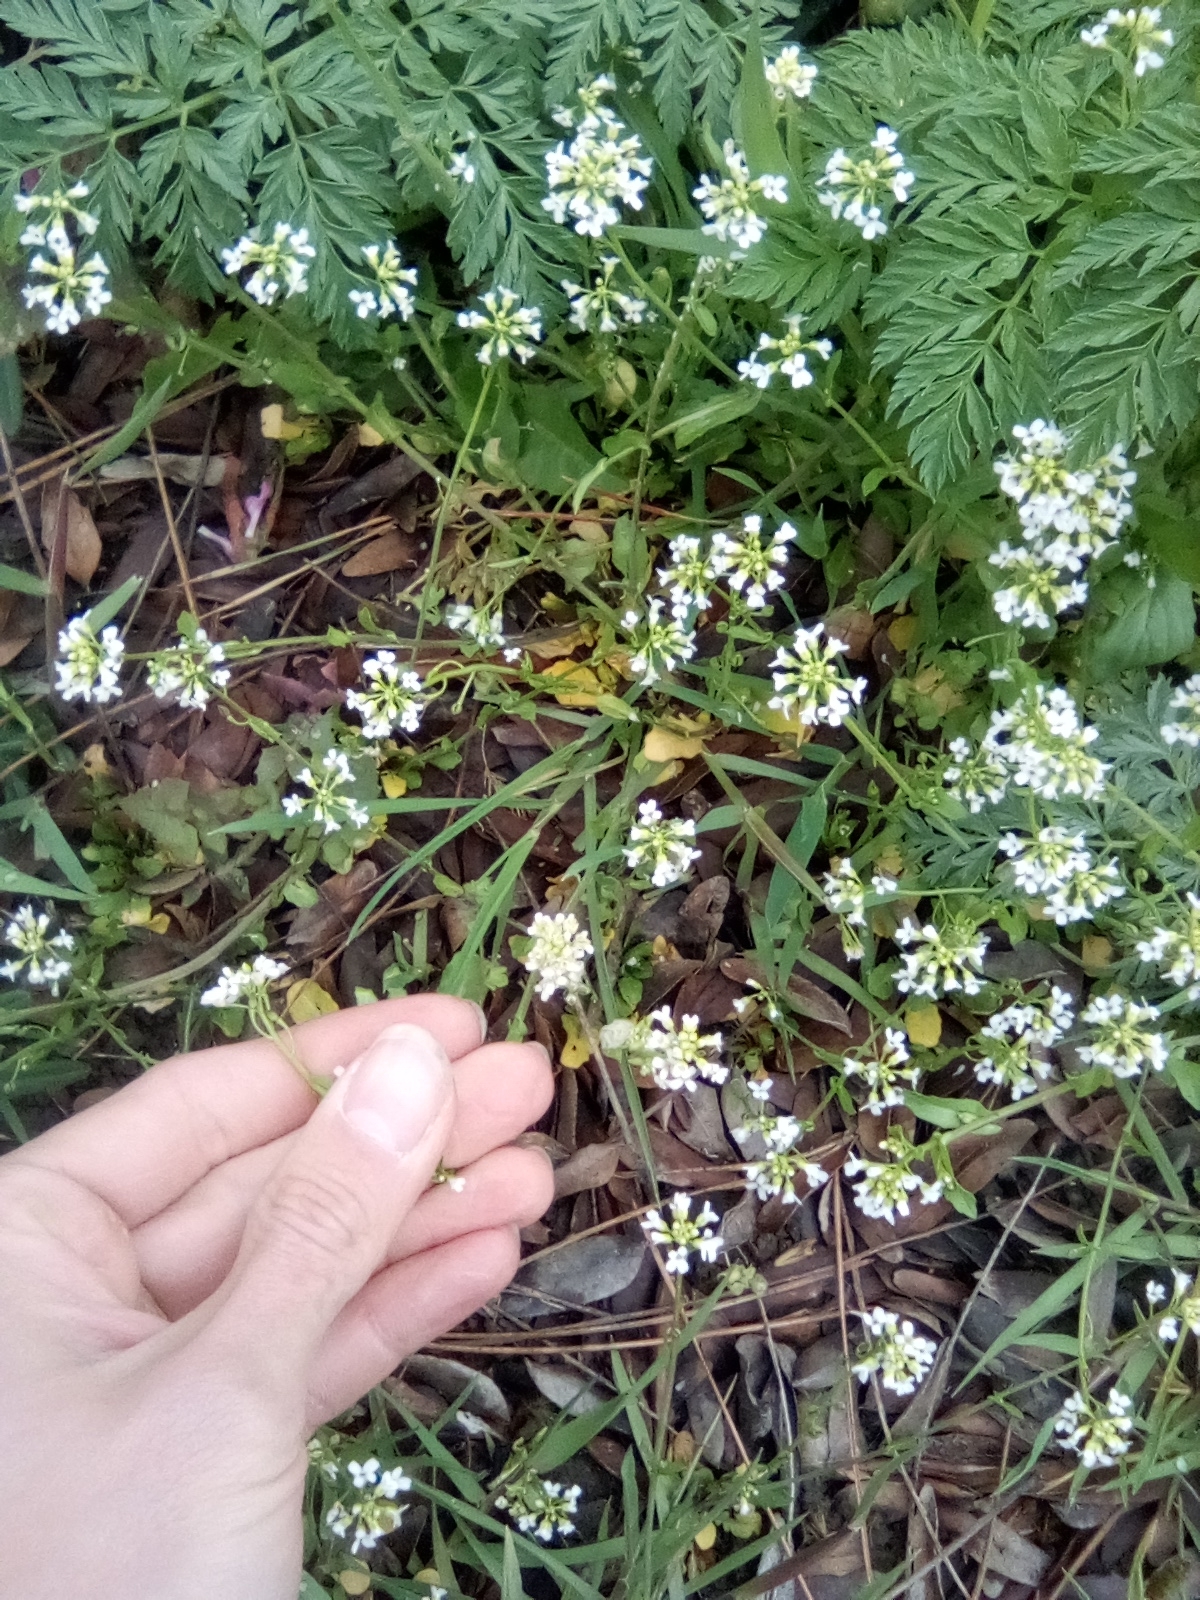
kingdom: Plantae
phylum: Tracheophyta
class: Magnoliopsida
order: Brassicales
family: Brassicaceae
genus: Noccaea
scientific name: Noccaea perfoliata
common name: Perfoliate pennycress
